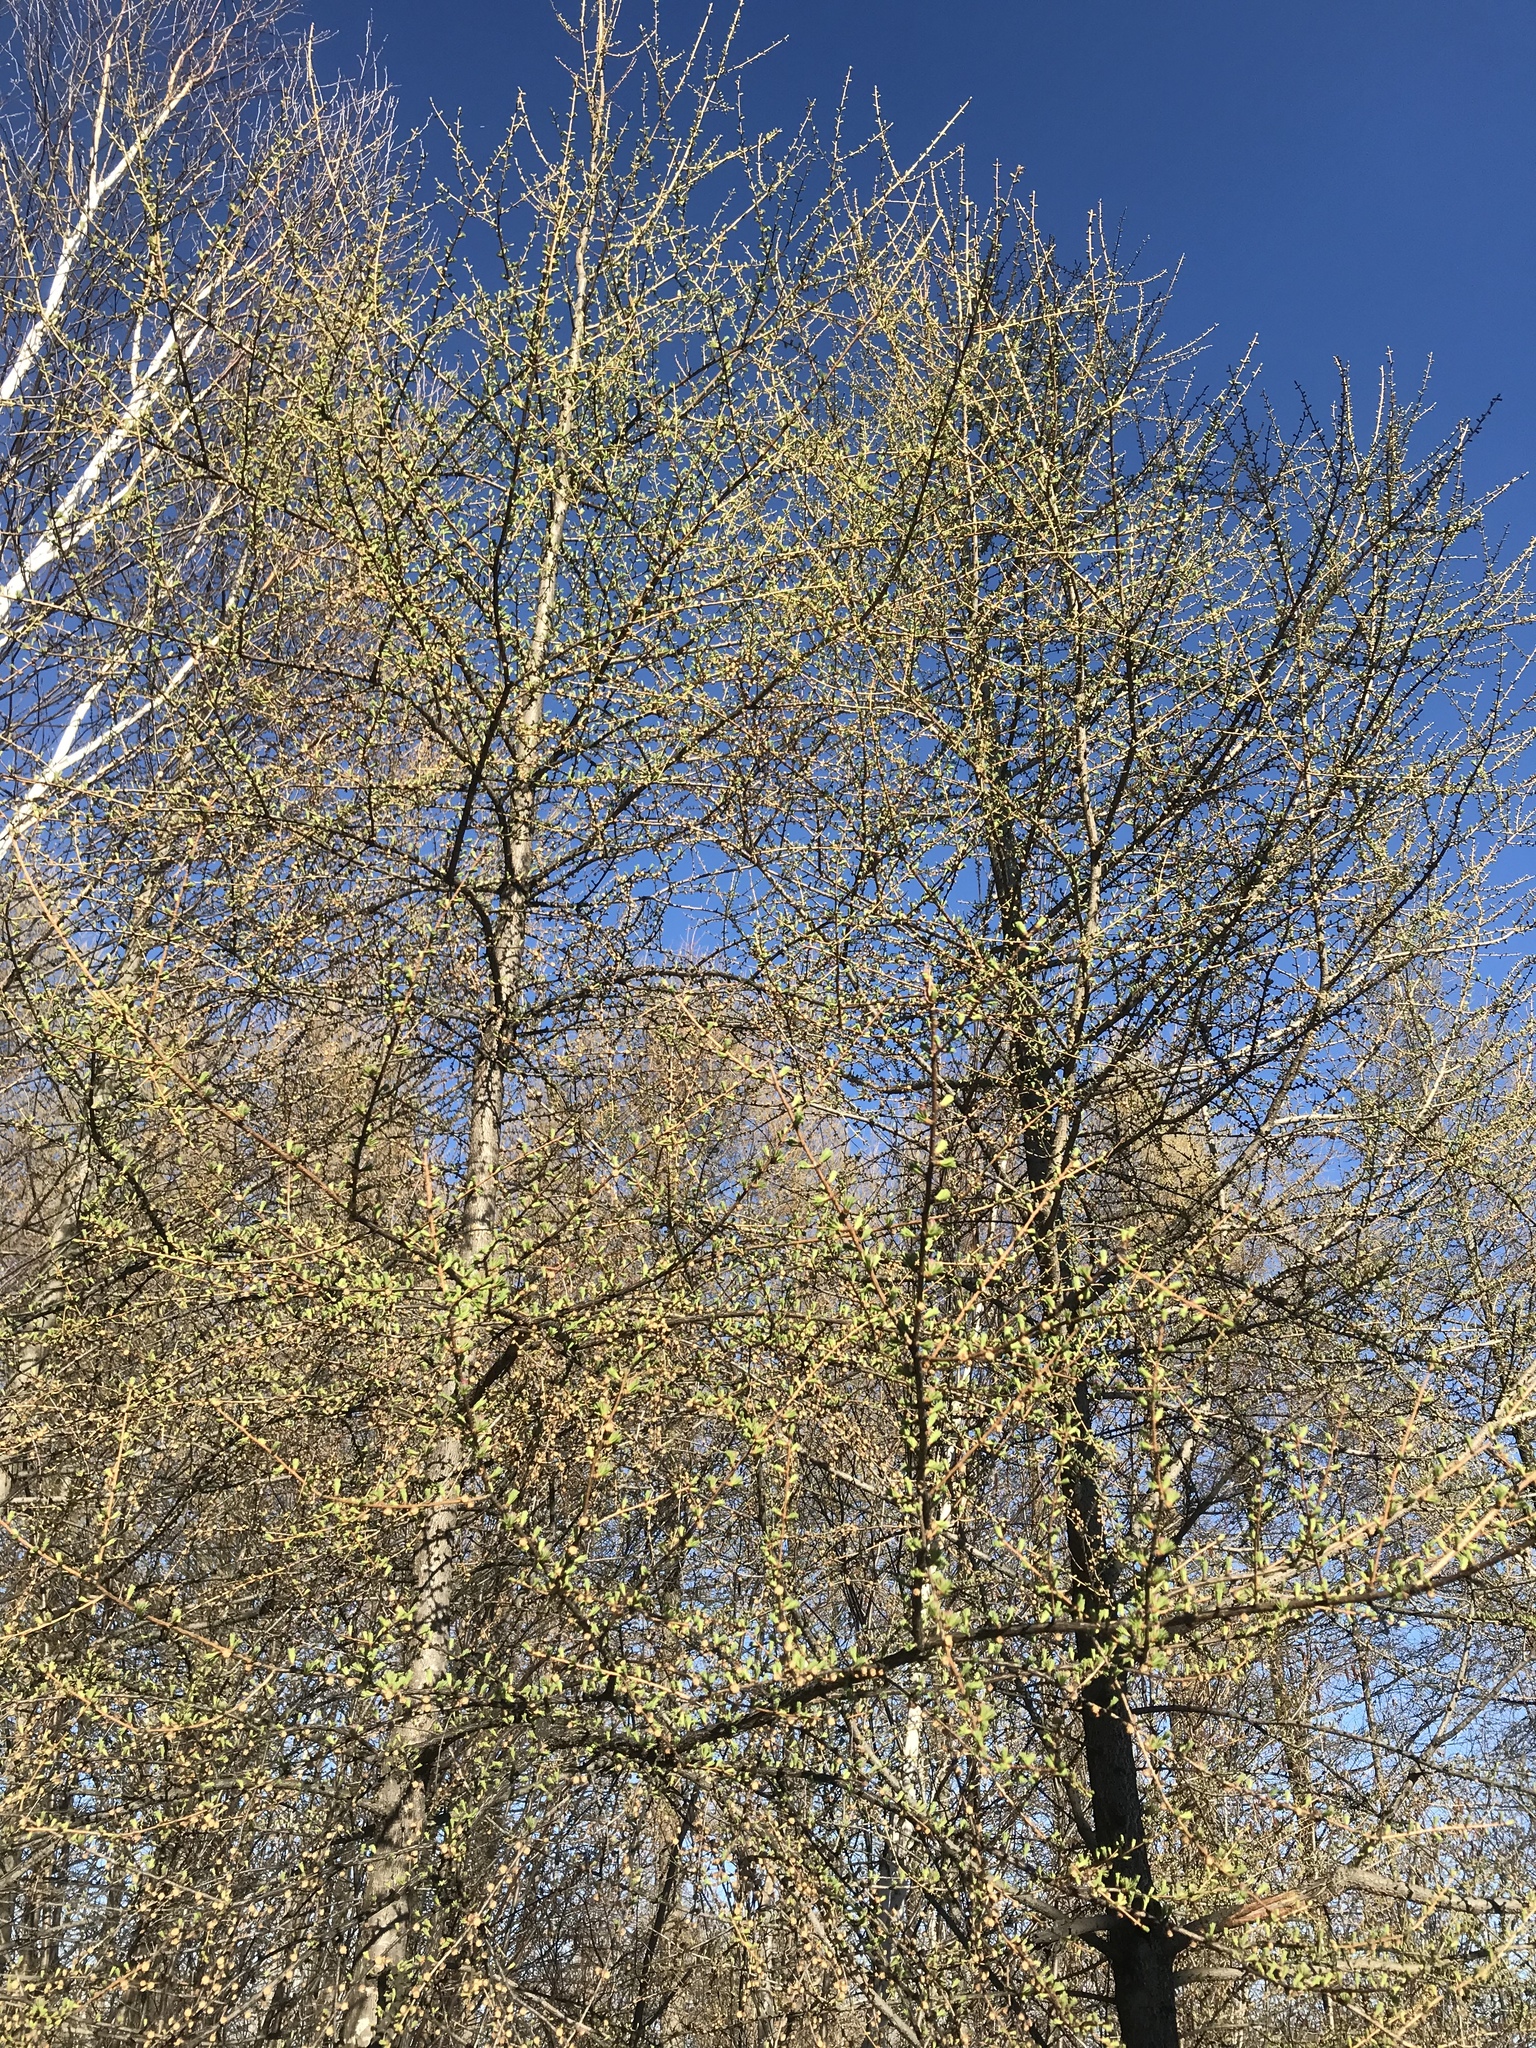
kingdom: Plantae
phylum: Tracheophyta
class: Pinopsida
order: Pinales
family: Pinaceae
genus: Larix
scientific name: Larix laricina
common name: American larch
